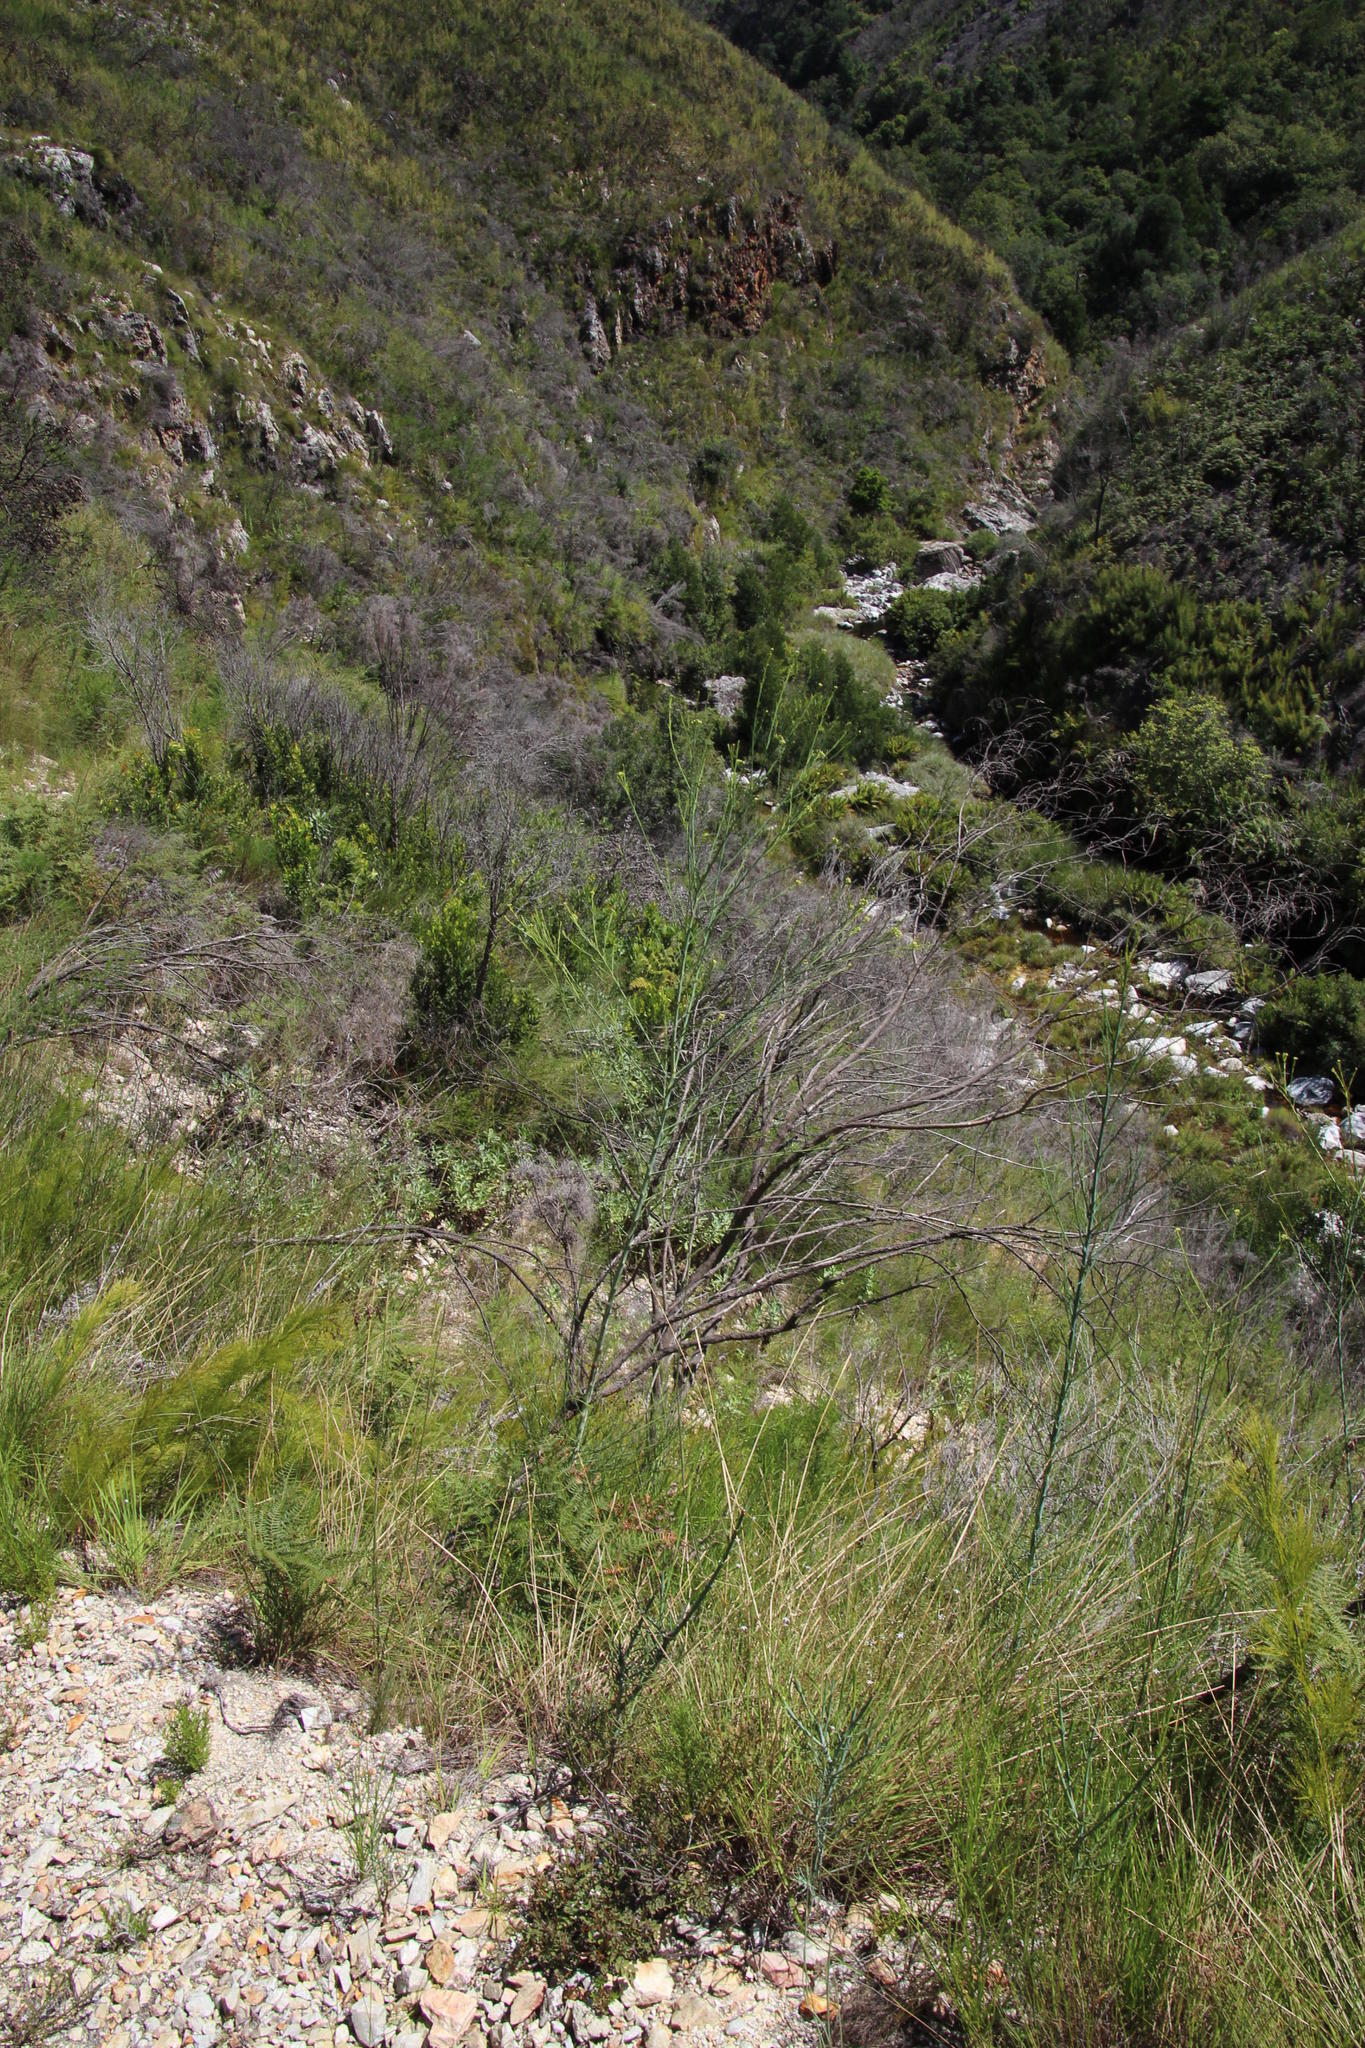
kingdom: Plantae
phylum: Tracheophyta
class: Magnoliopsida
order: Santalales
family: Thesiaceae
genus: Thesium
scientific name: Thesium strictum
